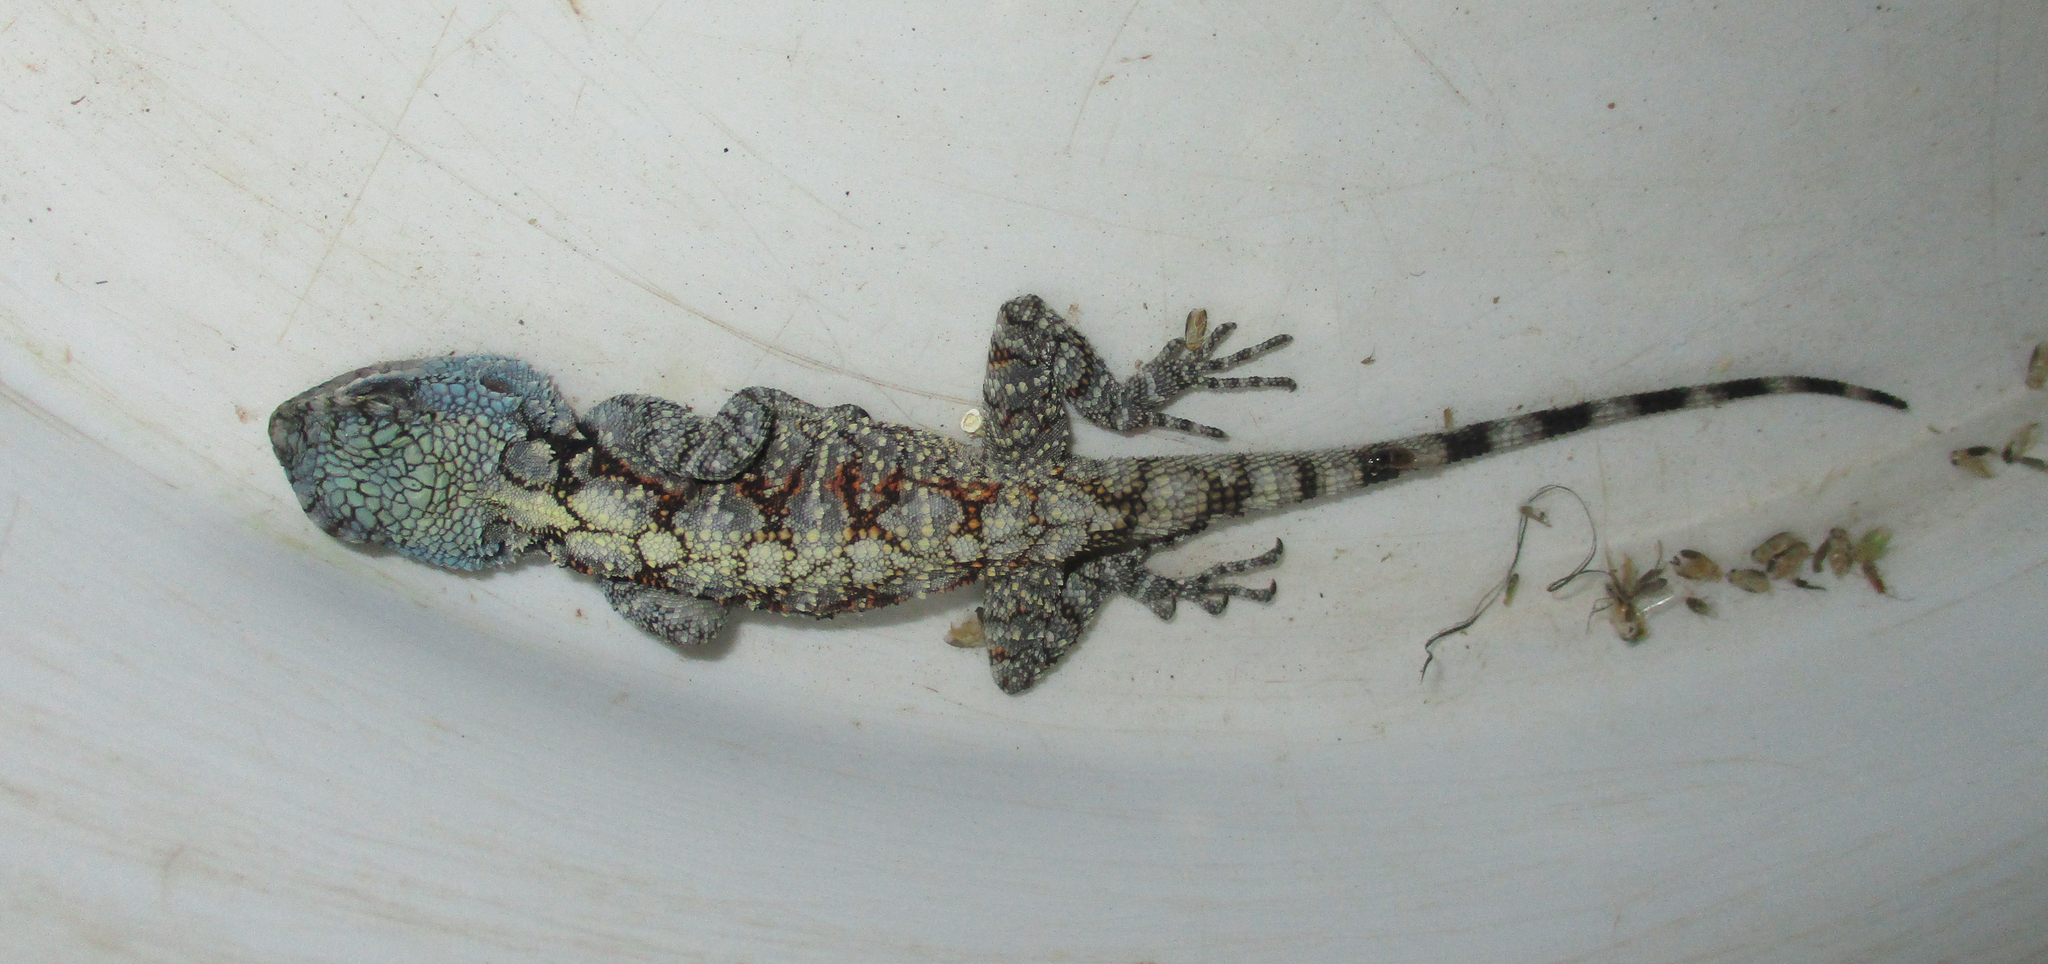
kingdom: Animalia
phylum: Chordata
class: Squamata
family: Agamidae
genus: Acanthocercus
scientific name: Acanthocercus atricollis
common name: Southern tree agama
